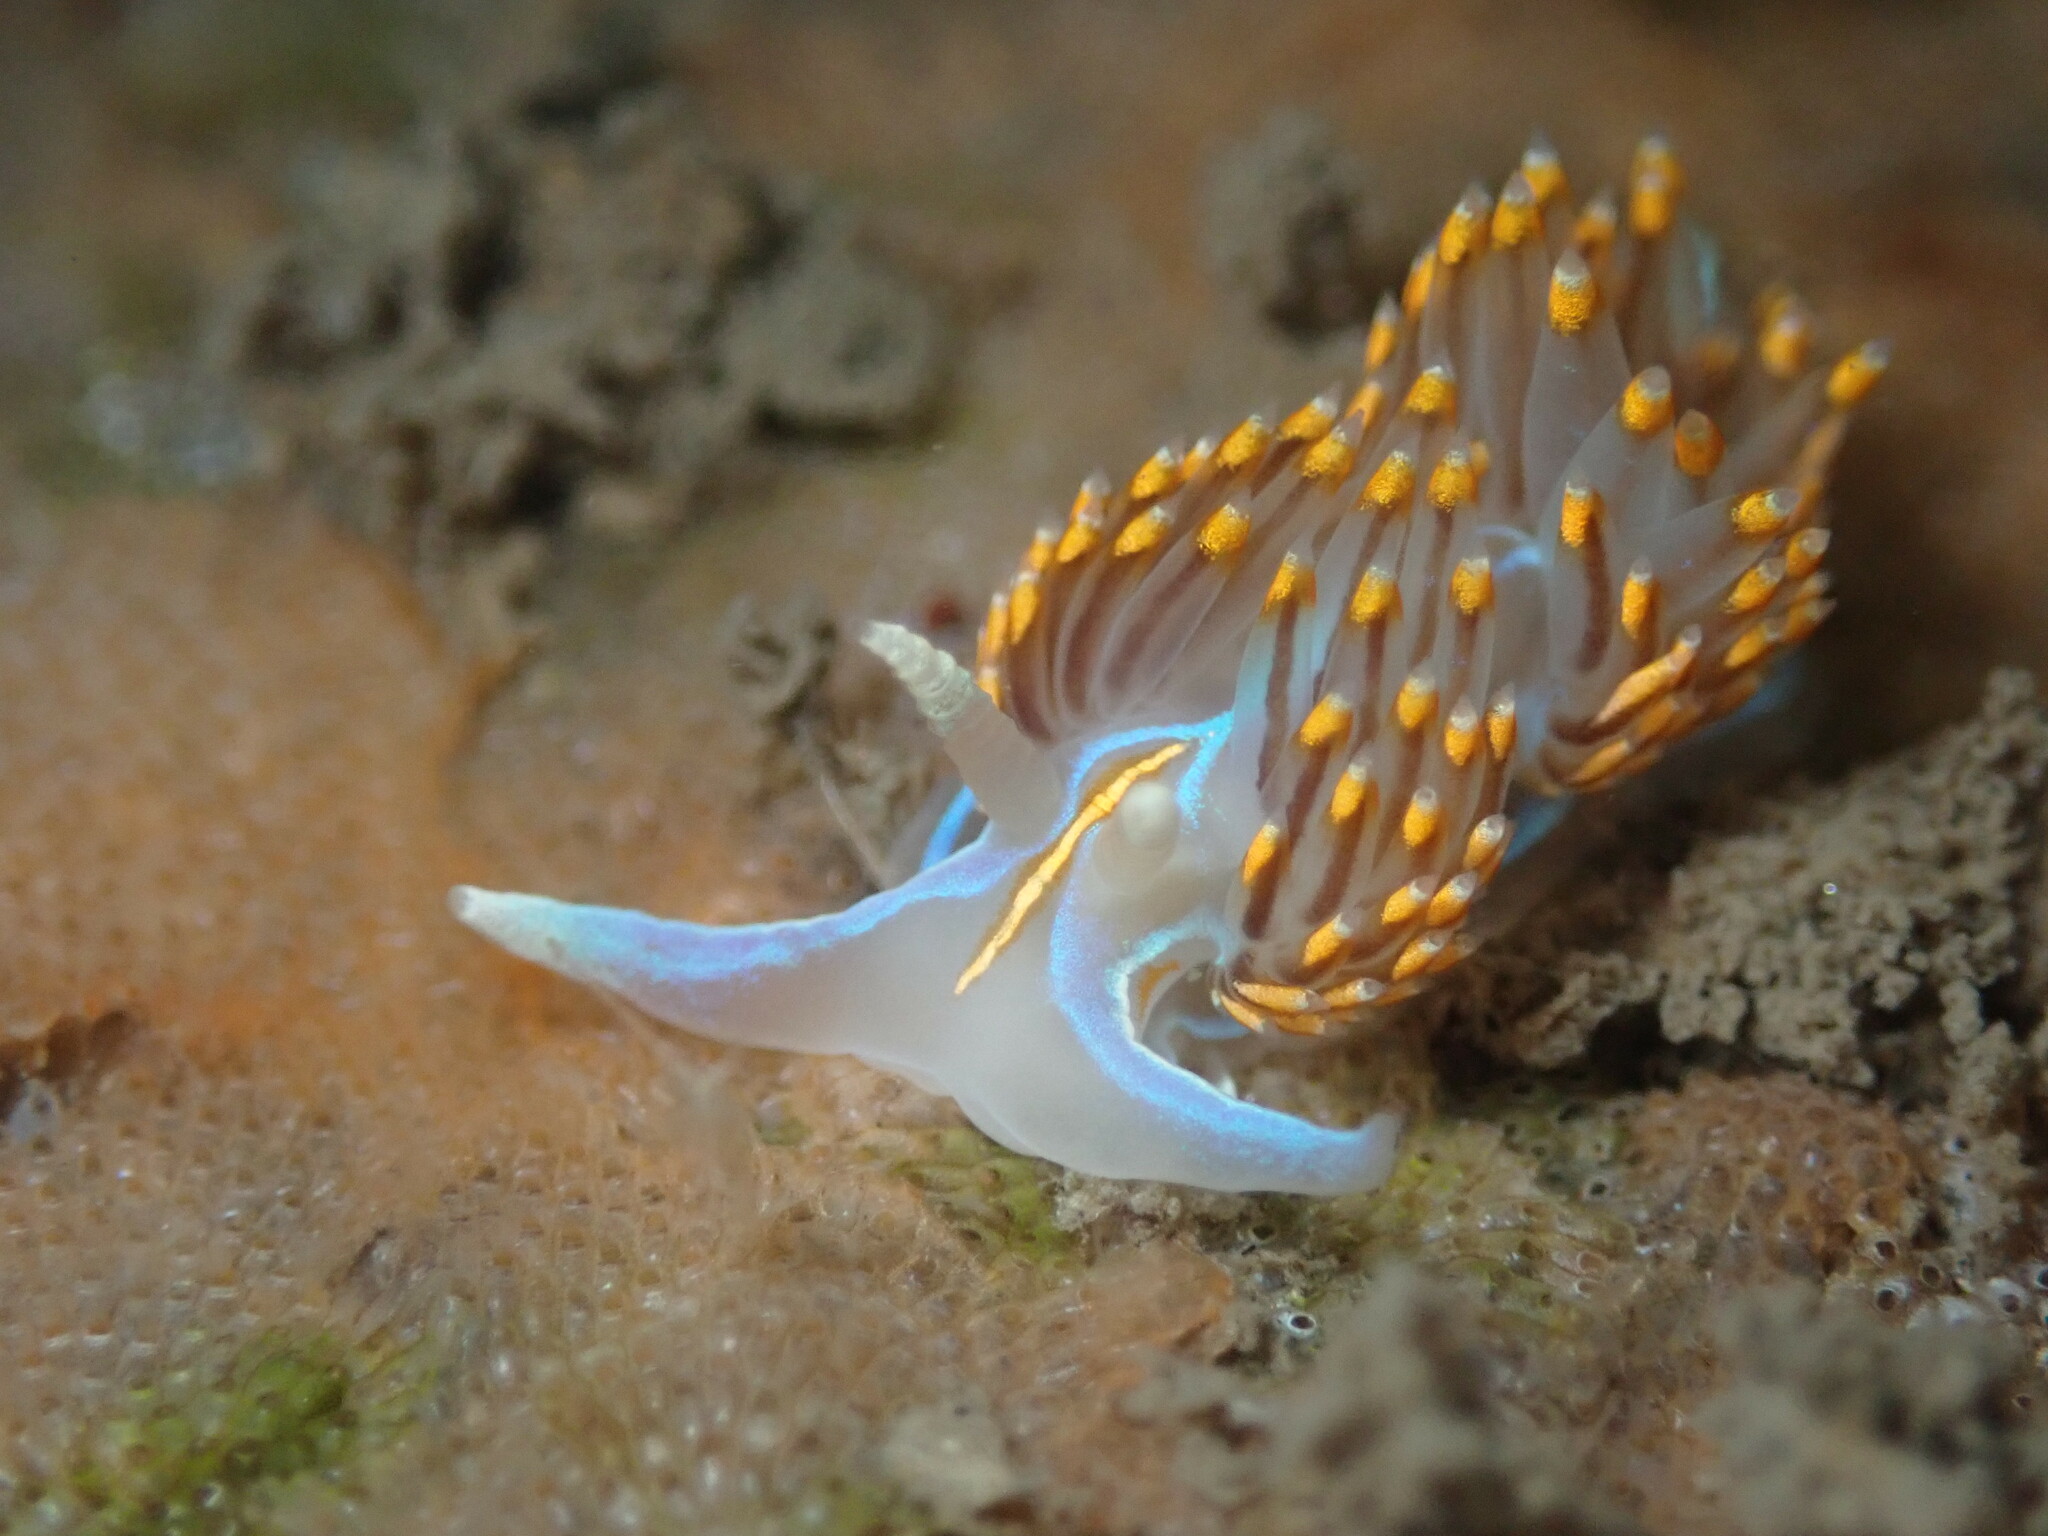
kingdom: Animalia
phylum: Mollusca
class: Gastropoda
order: Nudibranchia
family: Myrrhinidae
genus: Hermissenda
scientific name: Hermissenda opalescens
